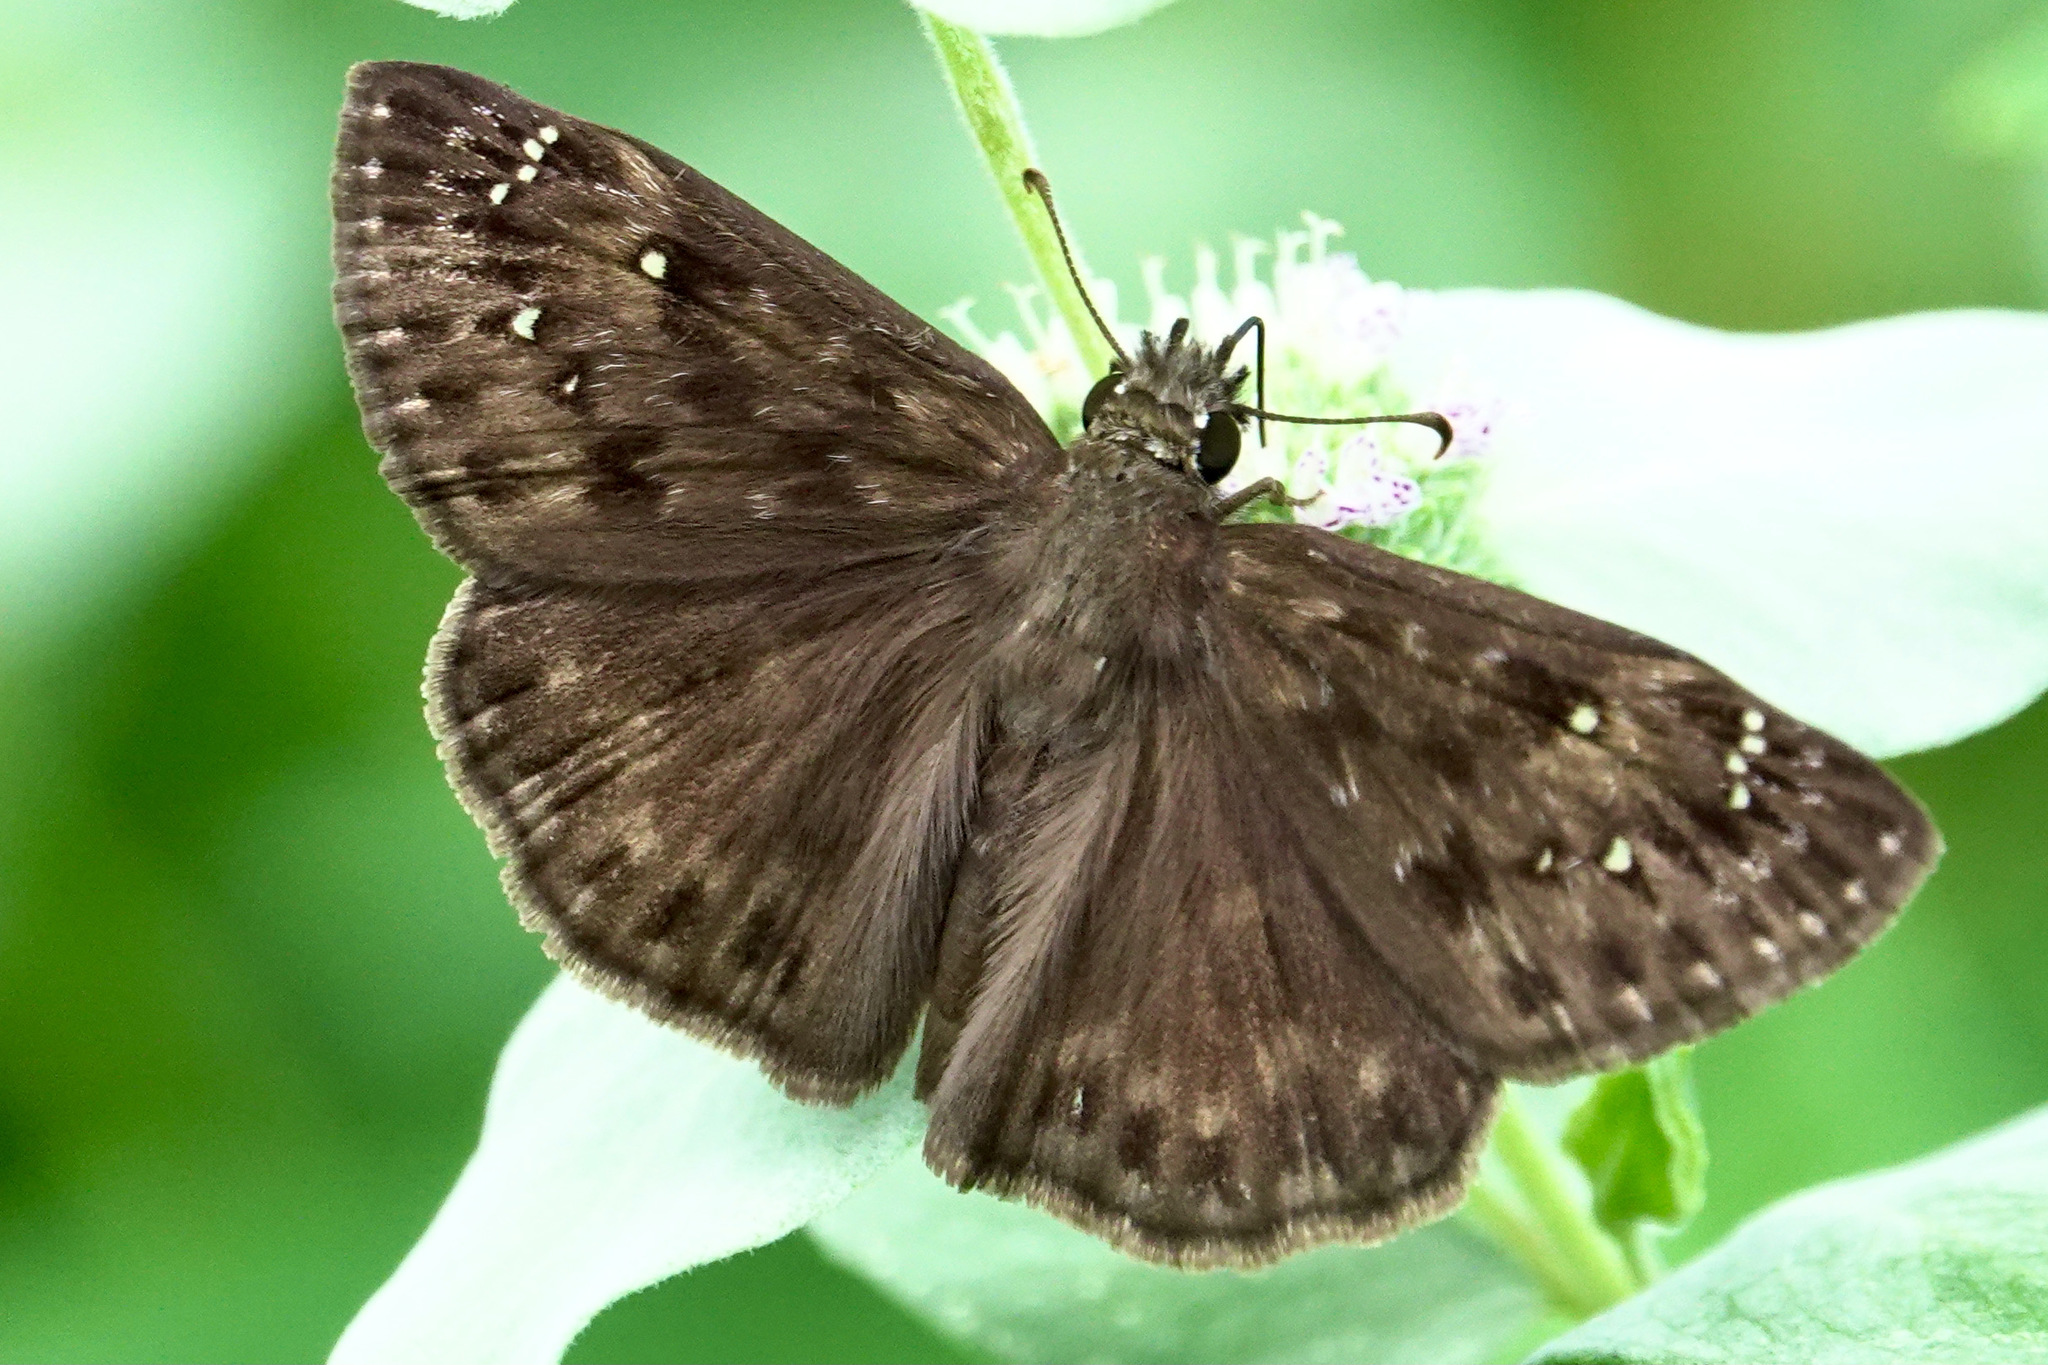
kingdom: Animalia
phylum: Arthropoda
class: Insecta
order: Lepidoptera
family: Hesperiidae
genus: Erynnis
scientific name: Erynnis horatius
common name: Horace's duskywing
